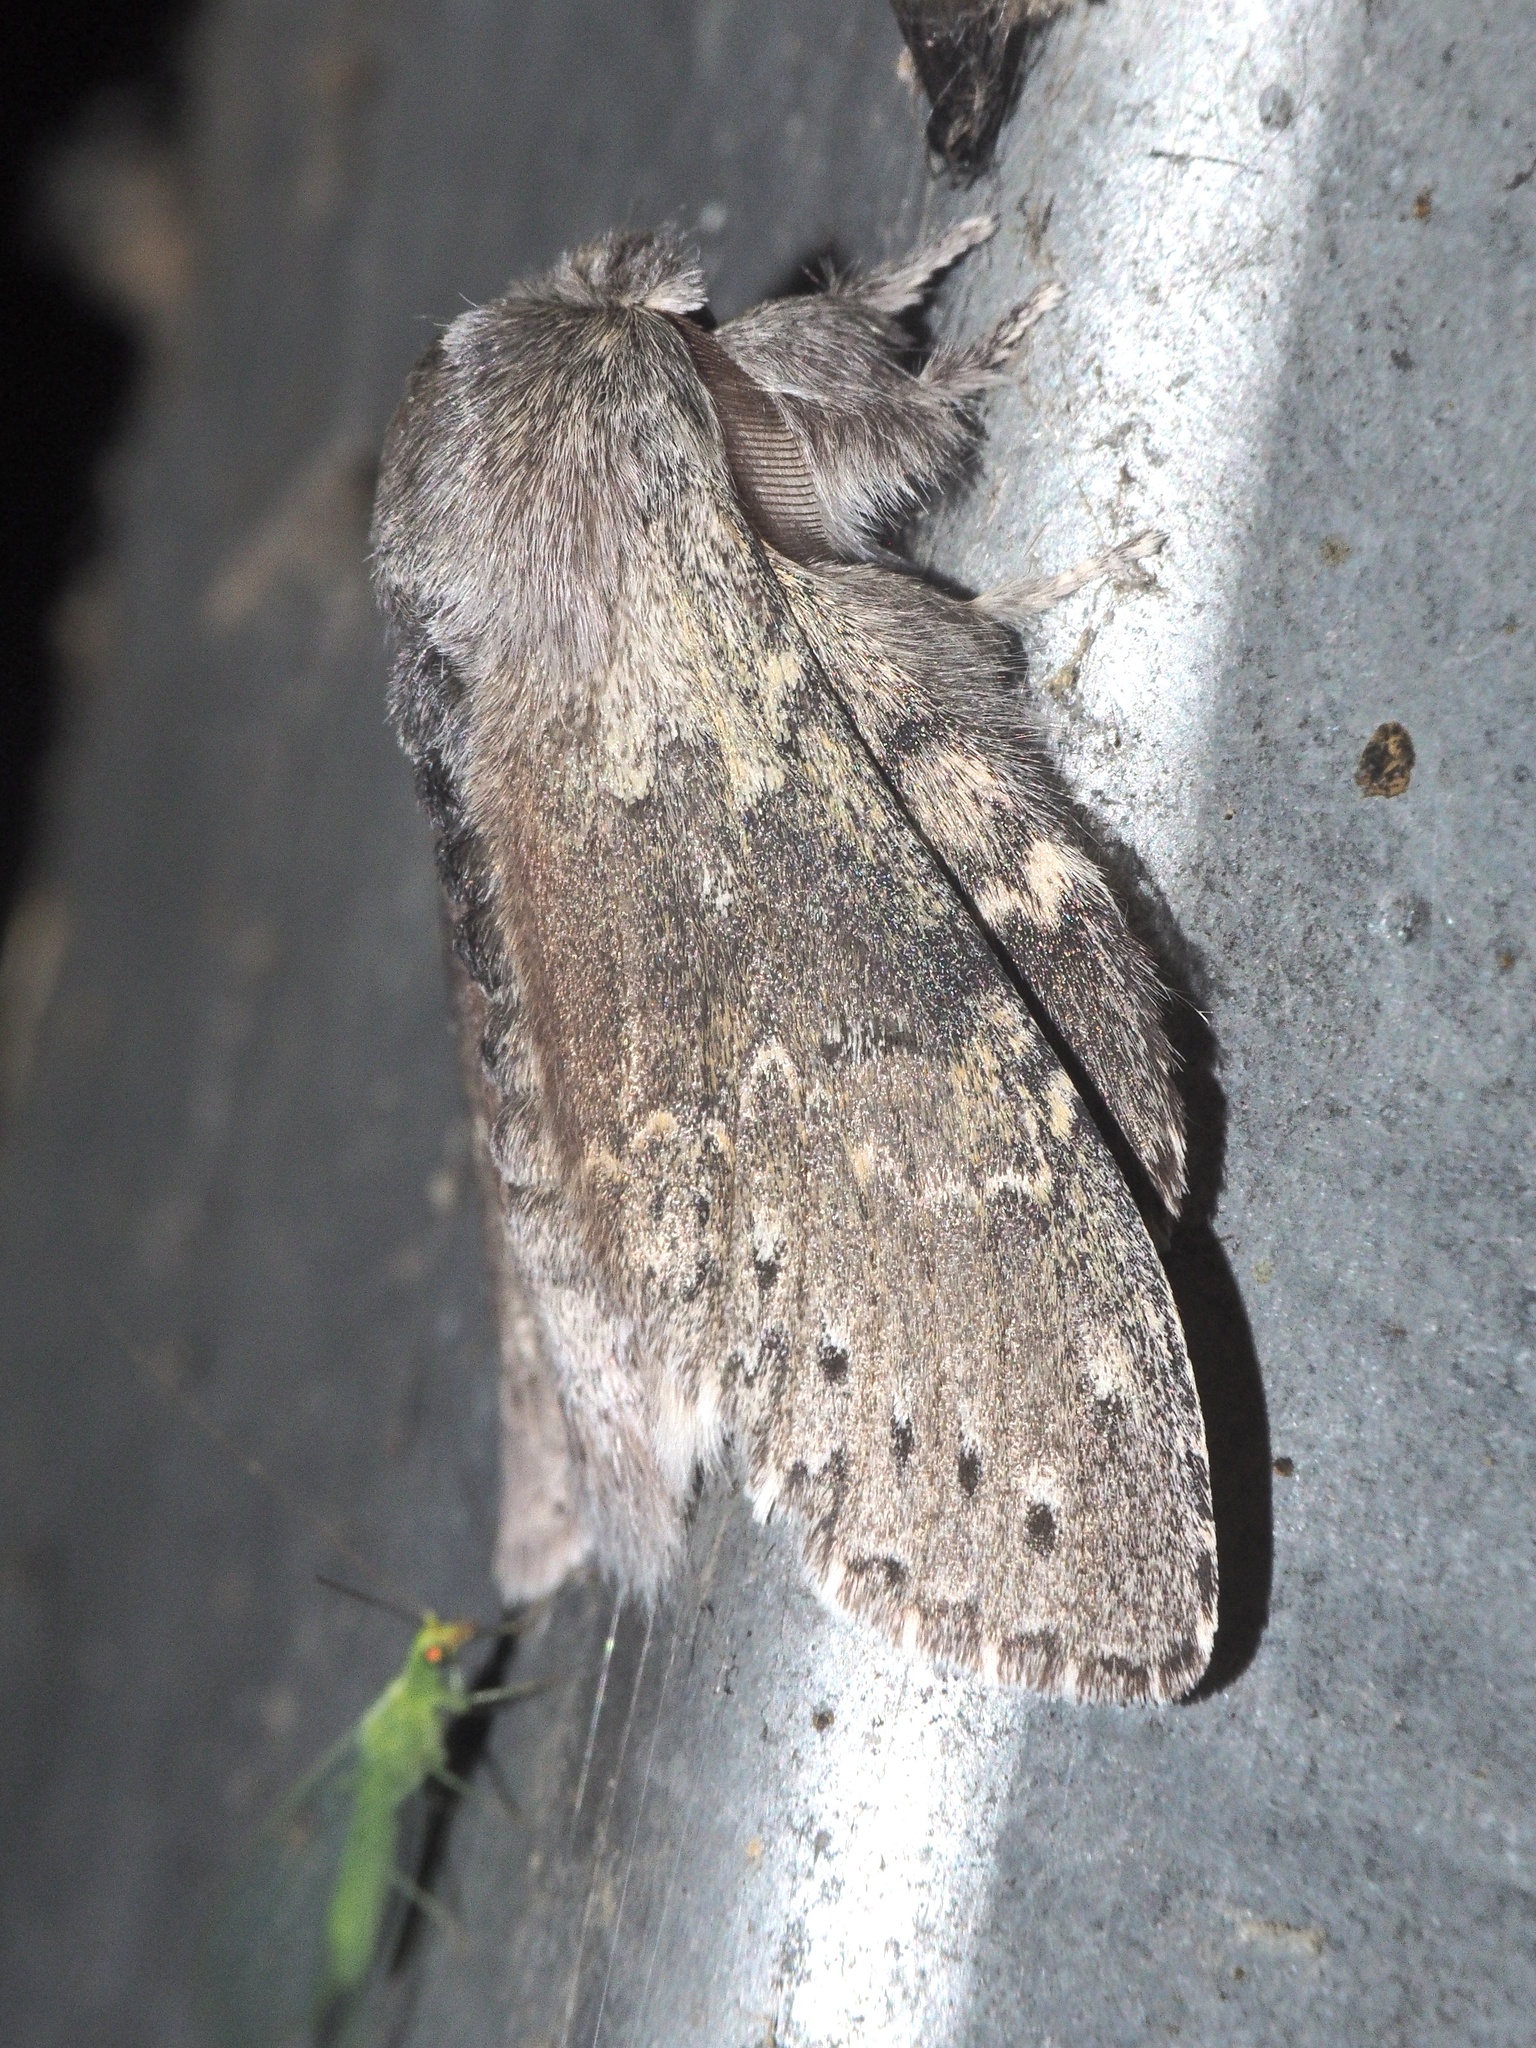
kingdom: Animalia
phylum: Arthropoda
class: Insecta
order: Lepidoptera
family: Notodontidae
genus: Stauropus
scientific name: Stauropus fagi
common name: Lobster moth
